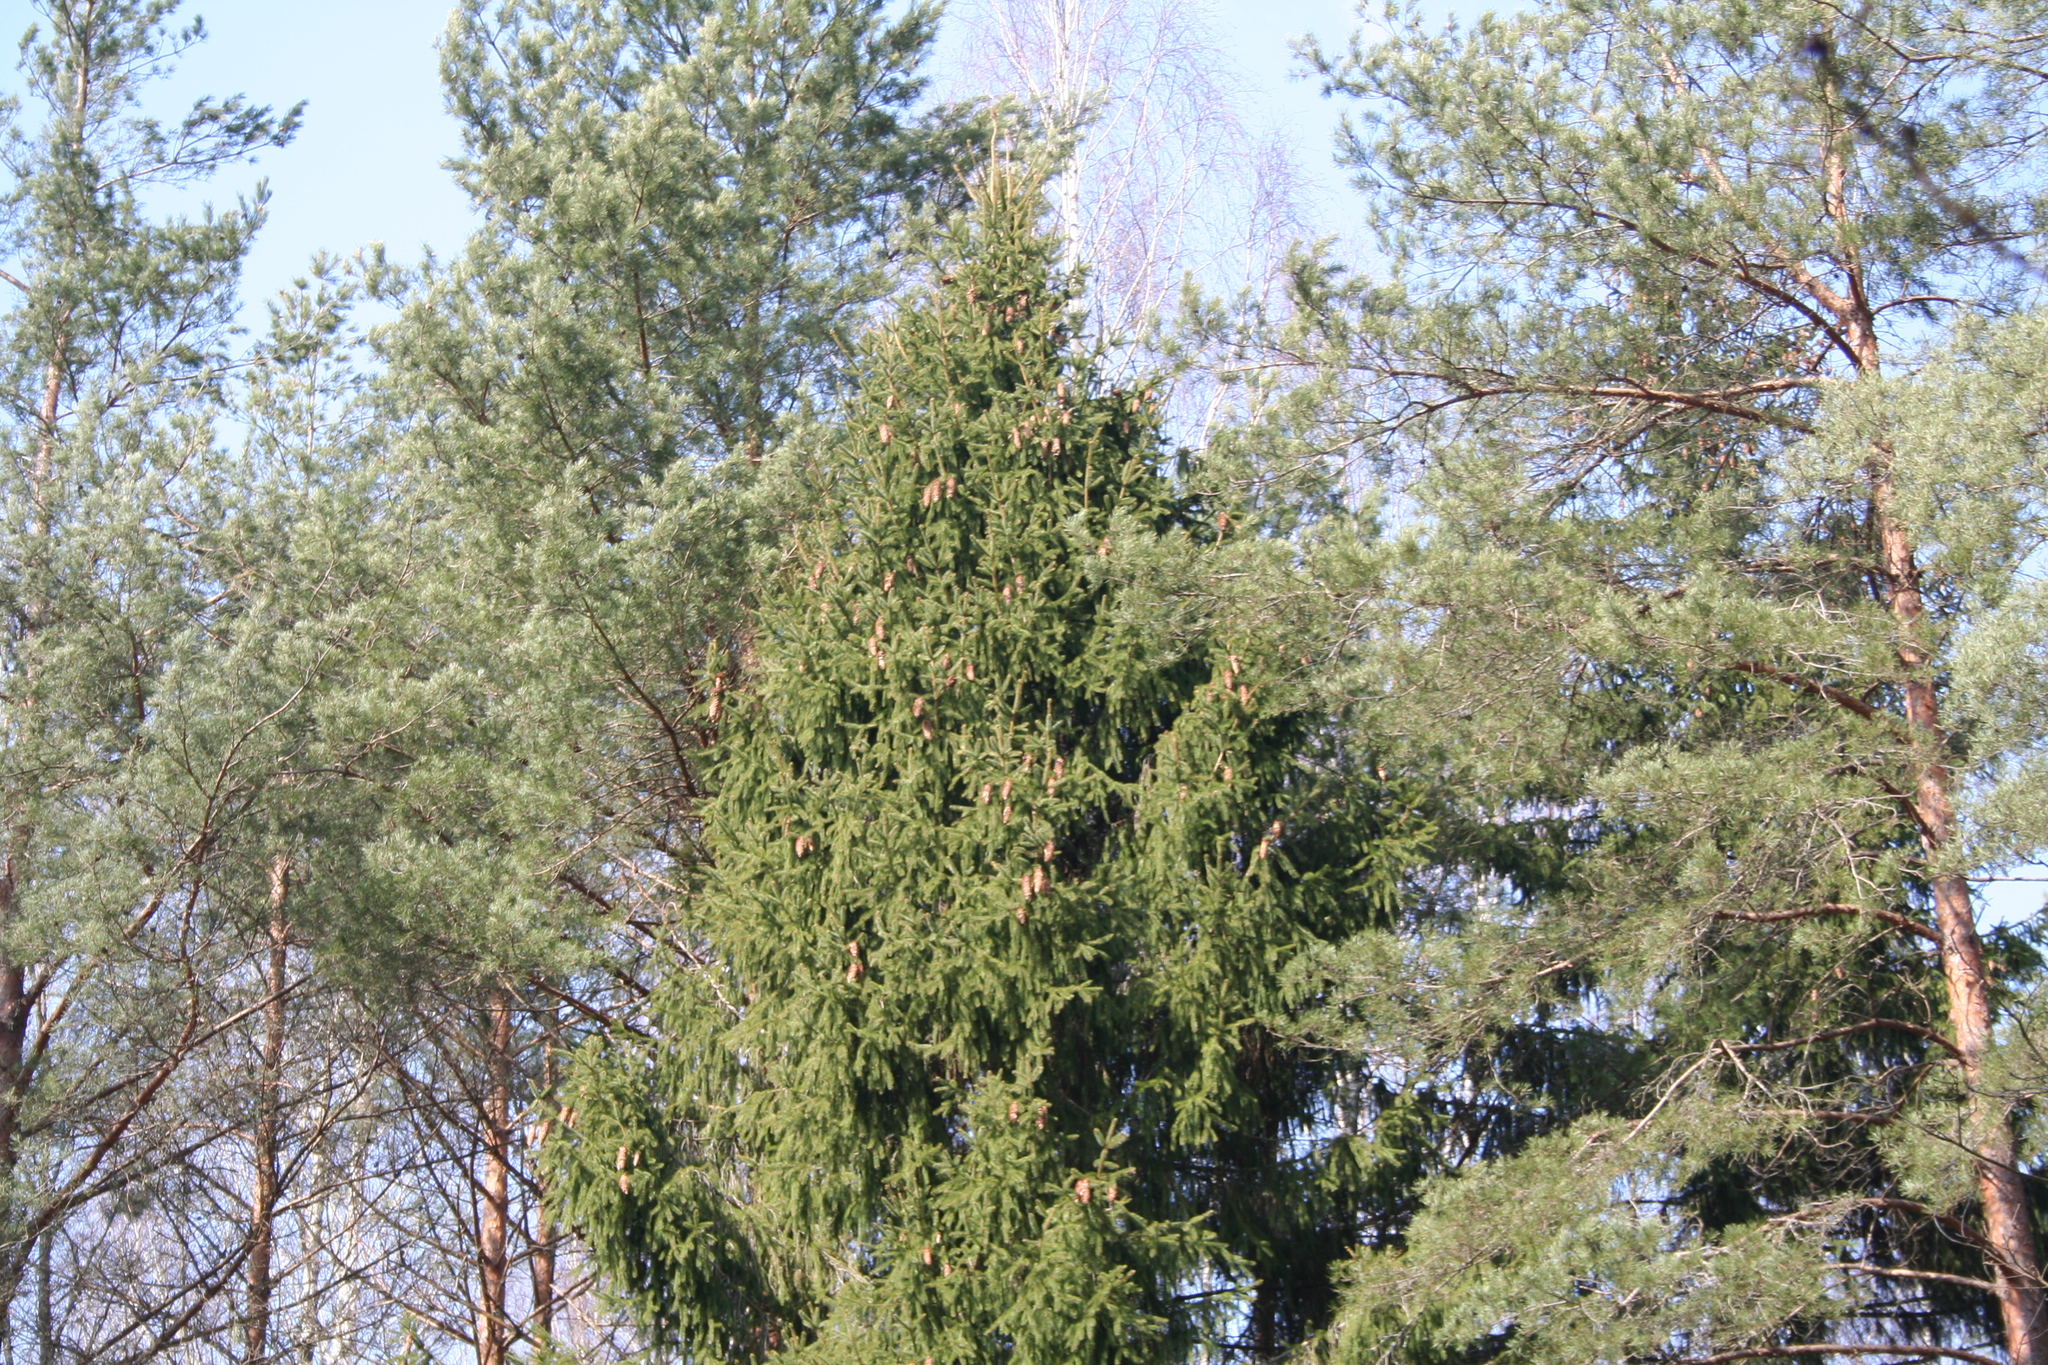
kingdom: Plantae
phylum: Tracheophyta
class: Pinopsida
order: Pinales
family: Pinaceae
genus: Picea
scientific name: Picea abies
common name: Norway spruce
